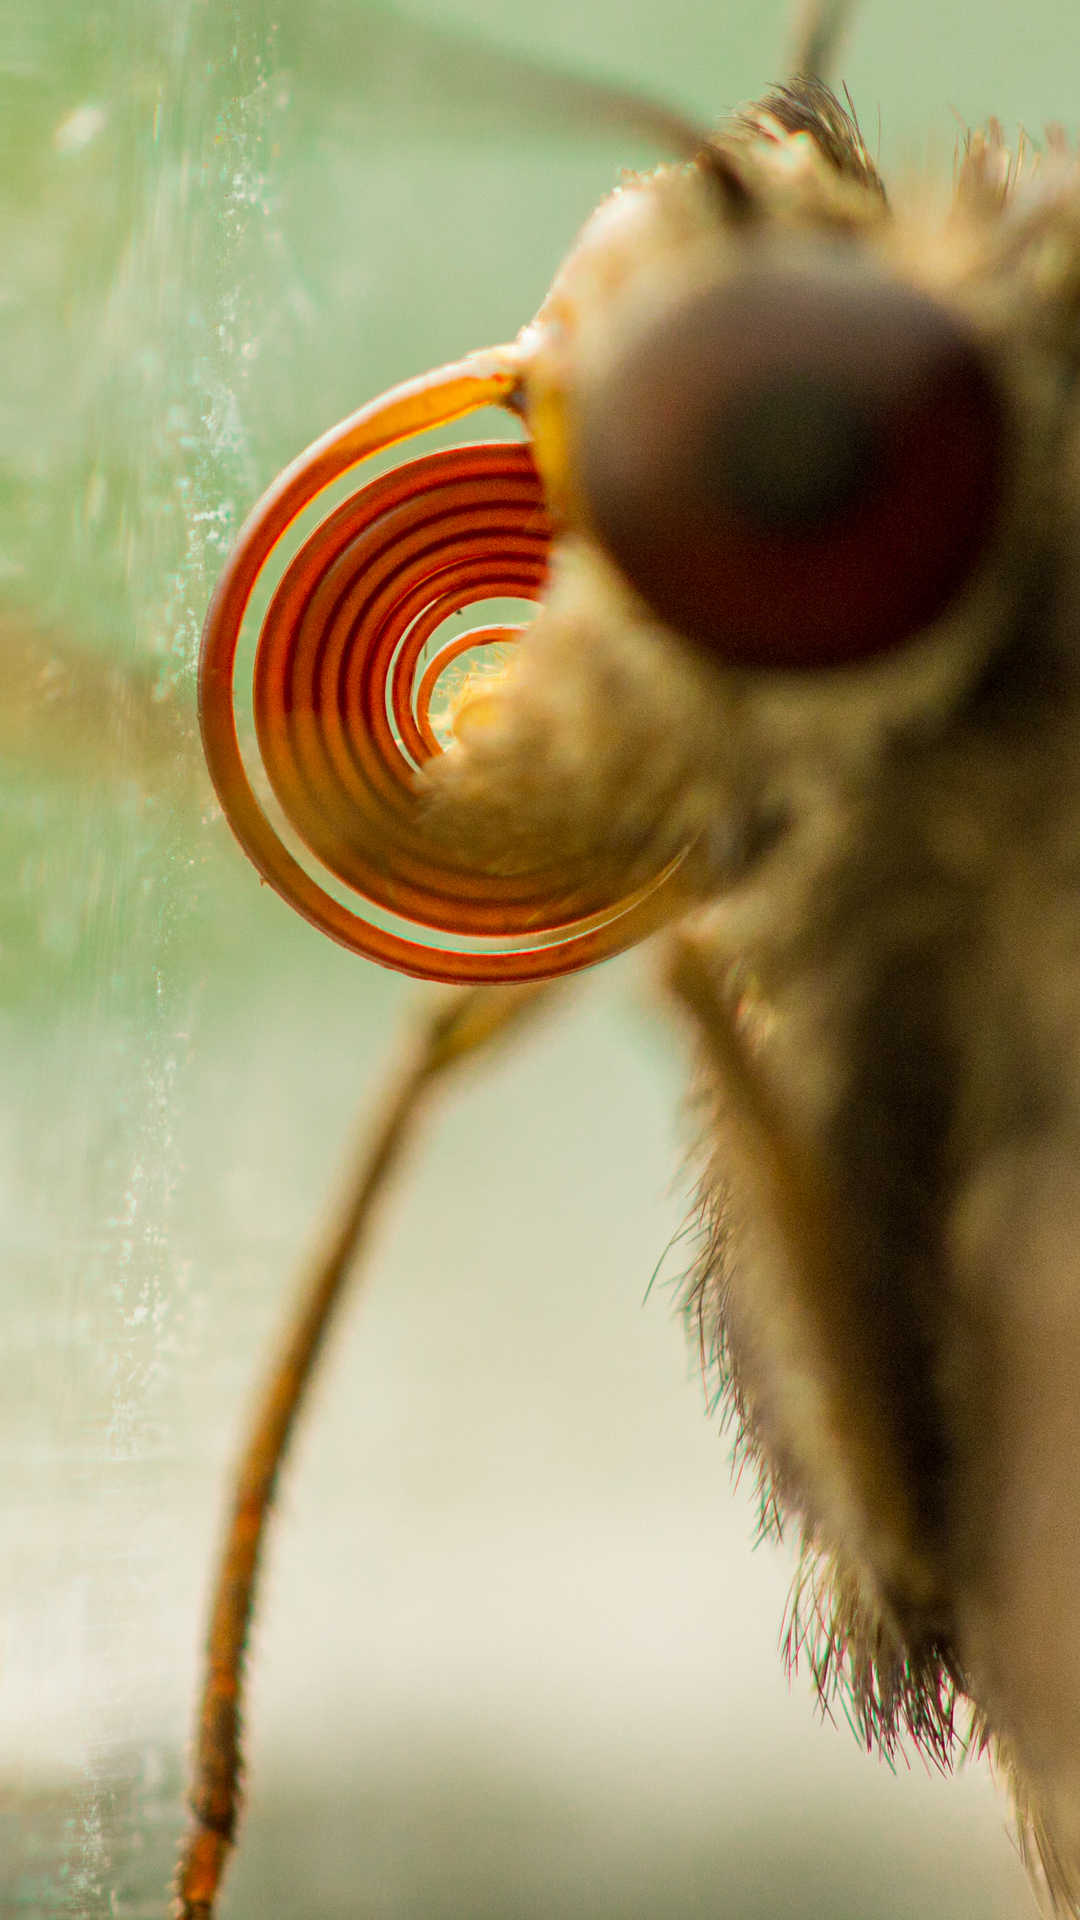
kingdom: Animalia
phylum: Arthropoda
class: Insecta
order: Lepidoptera
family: Hesperiidae
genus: Gangara
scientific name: Gangara thyrsis
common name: Giant redeye
